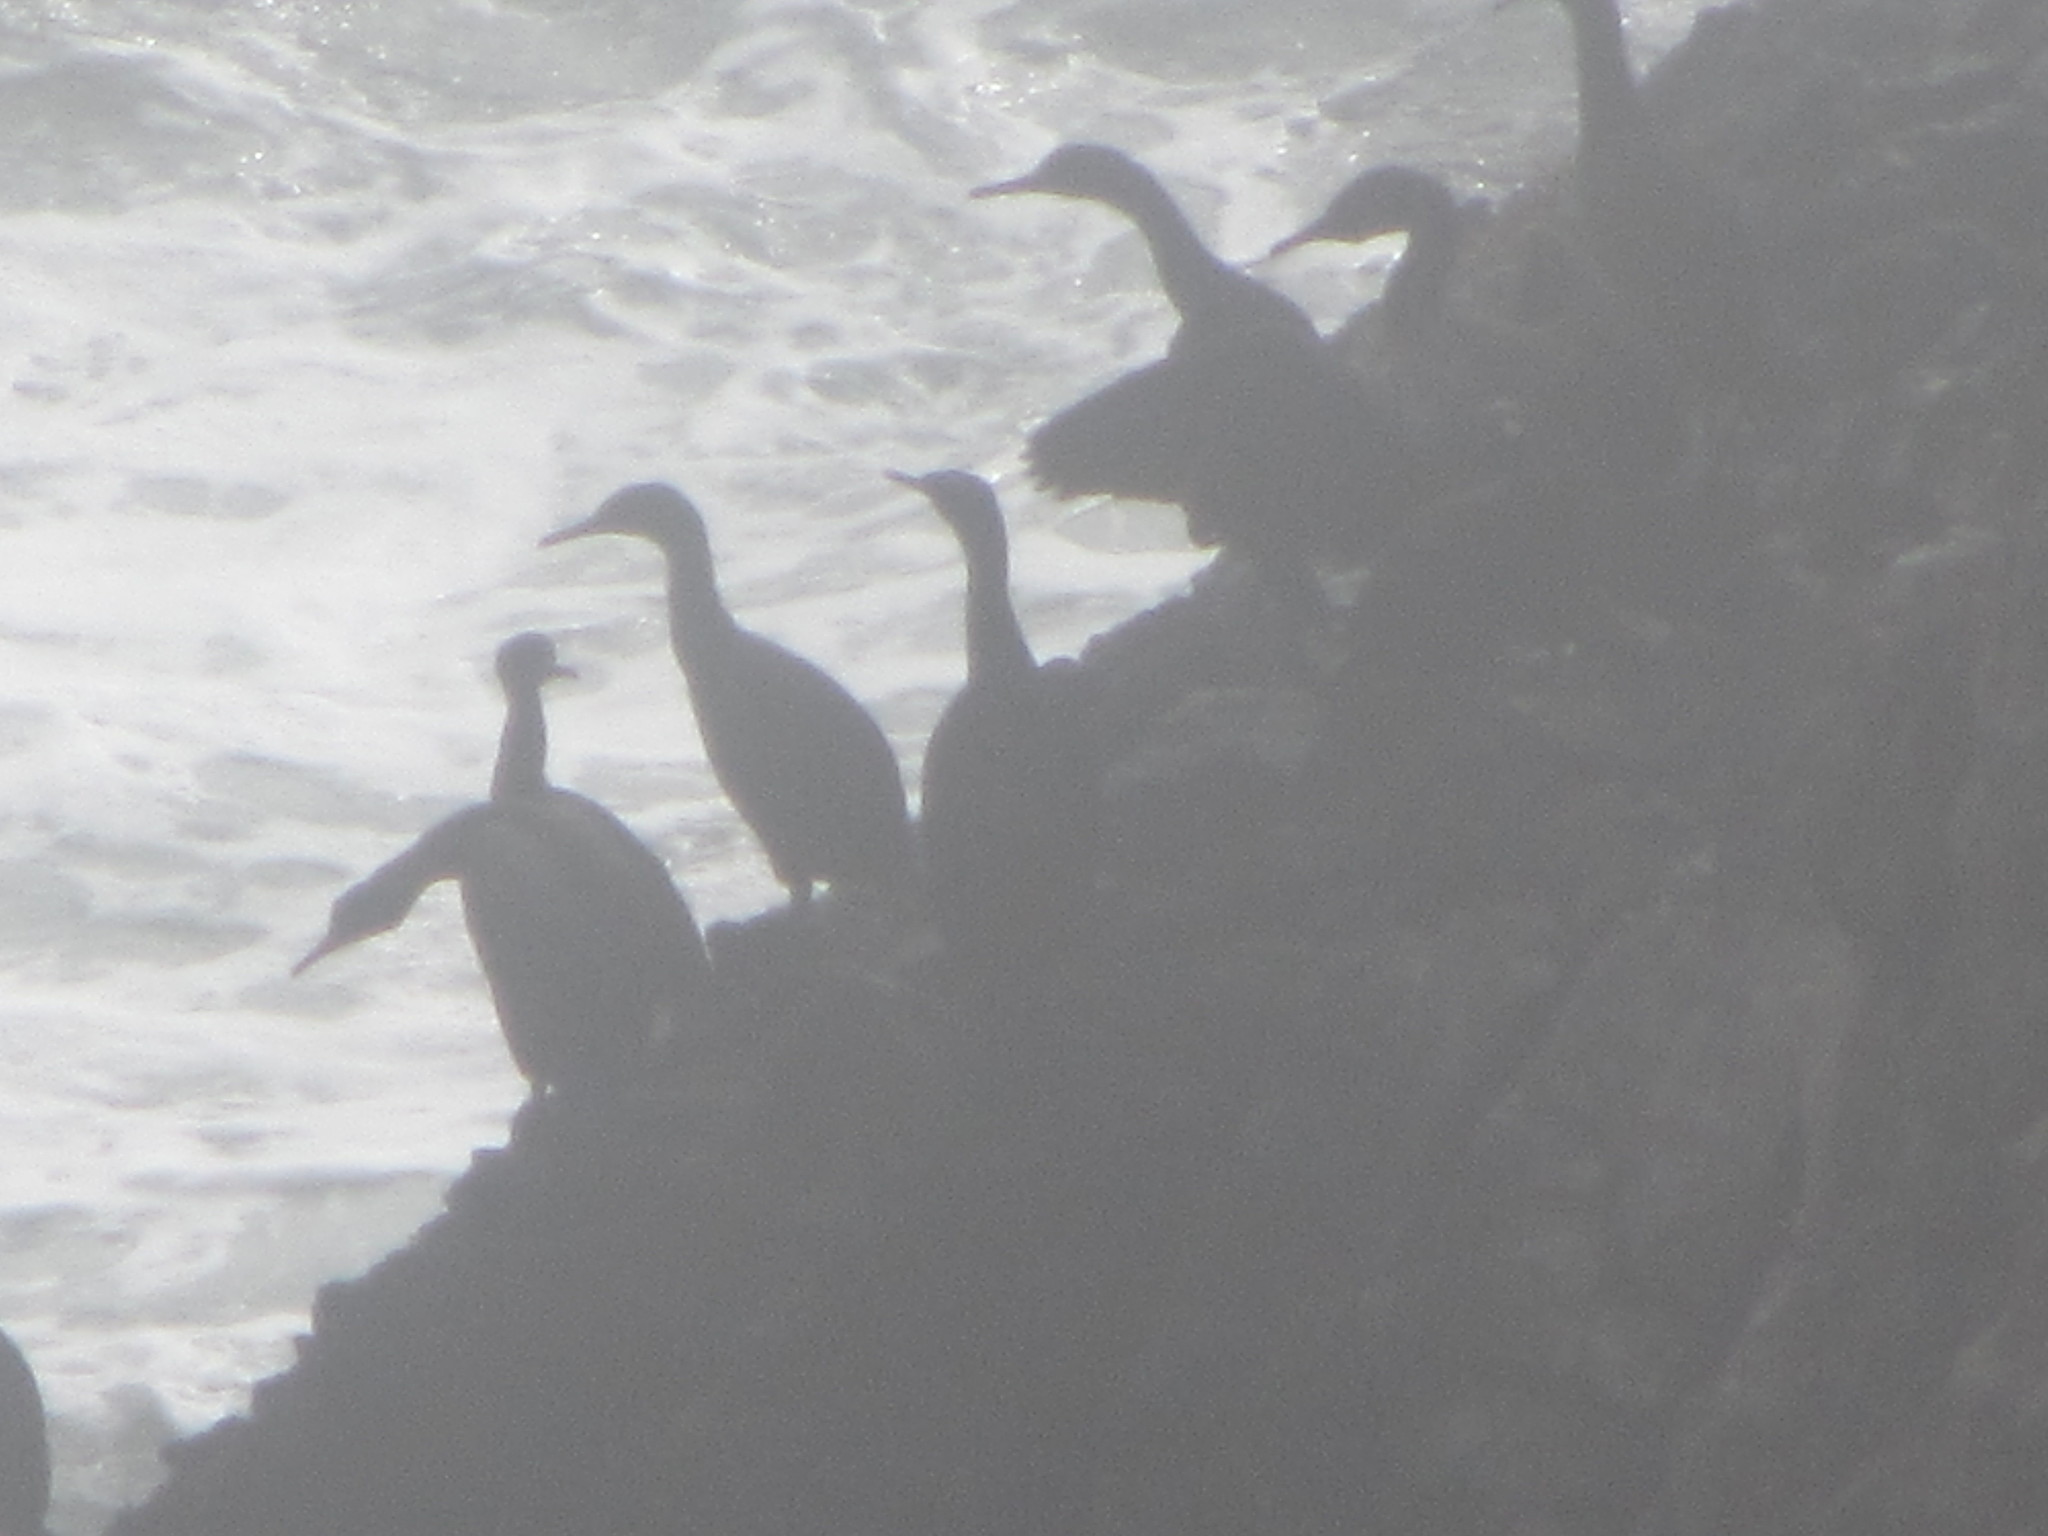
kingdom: Animalia
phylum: Chordata
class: Aves
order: Suliformes
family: Phalacrocoracidae
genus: Phalacrocorax
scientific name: Phalacrocorax pelagicus
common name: Pelagic cormorant
